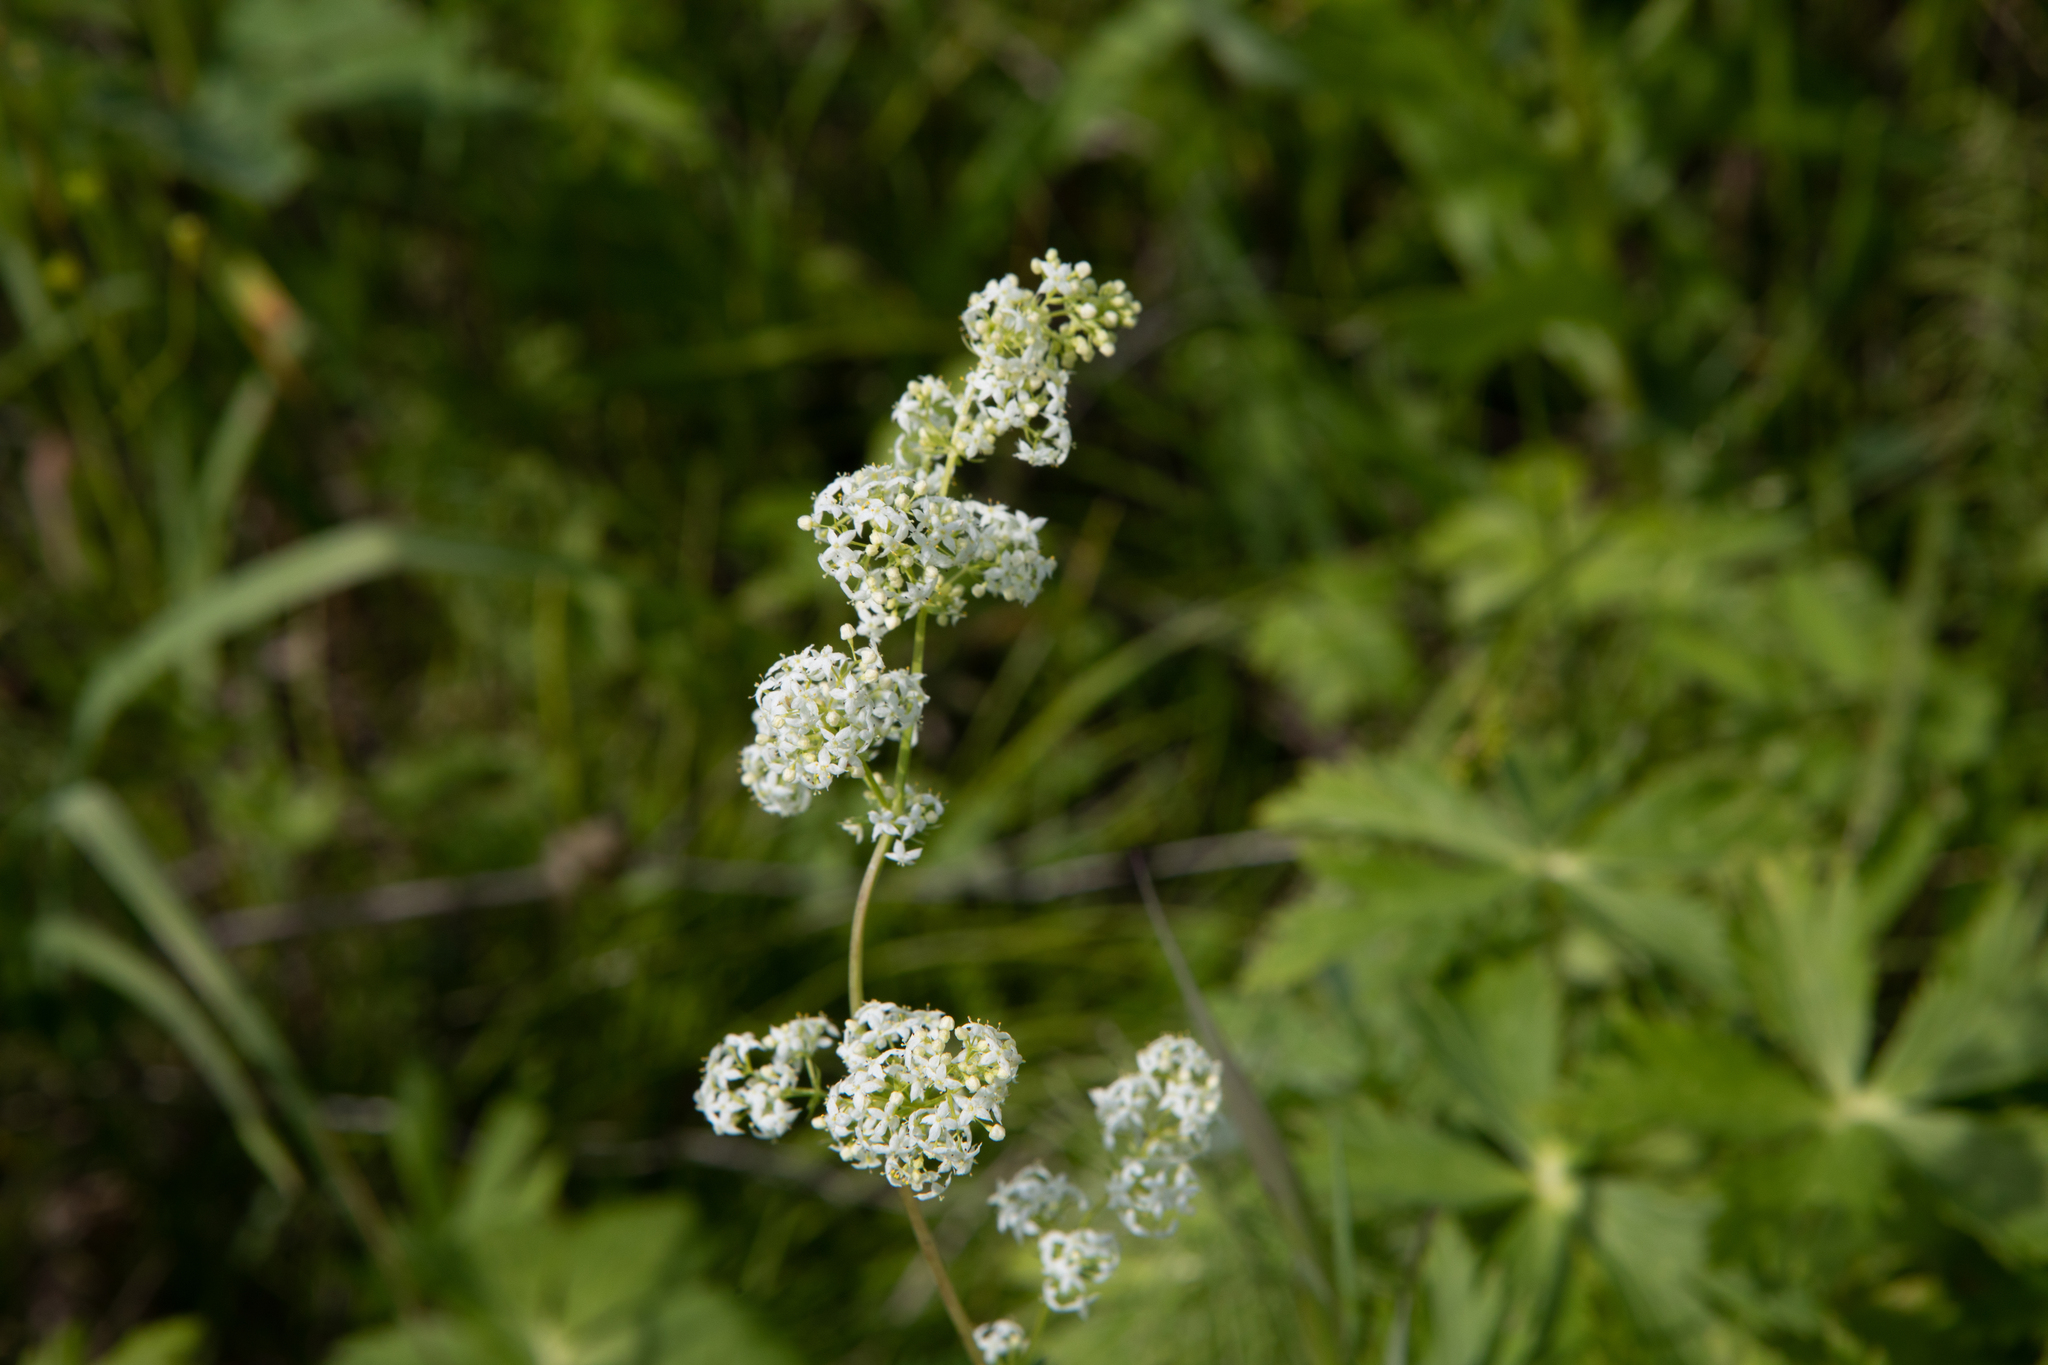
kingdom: Plantae
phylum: Tracheophyta
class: Magnoliopsida
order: Gentianales
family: Rubiaceae
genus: Galium
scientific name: Galium mollugo
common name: Hedge bedstraw
